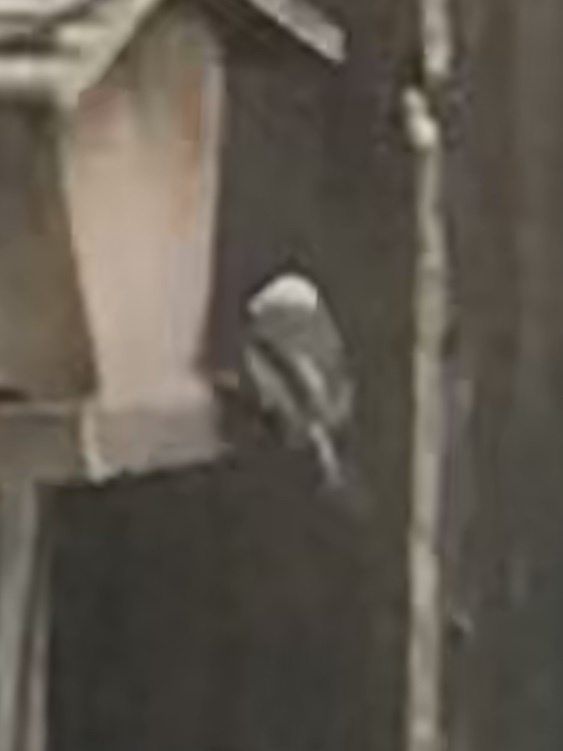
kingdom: Animalia
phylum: Chordata
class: Aves
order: Passeriformes
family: Paridae
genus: Poecile
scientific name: Poecile carolinensis
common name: Carolina chickadee
